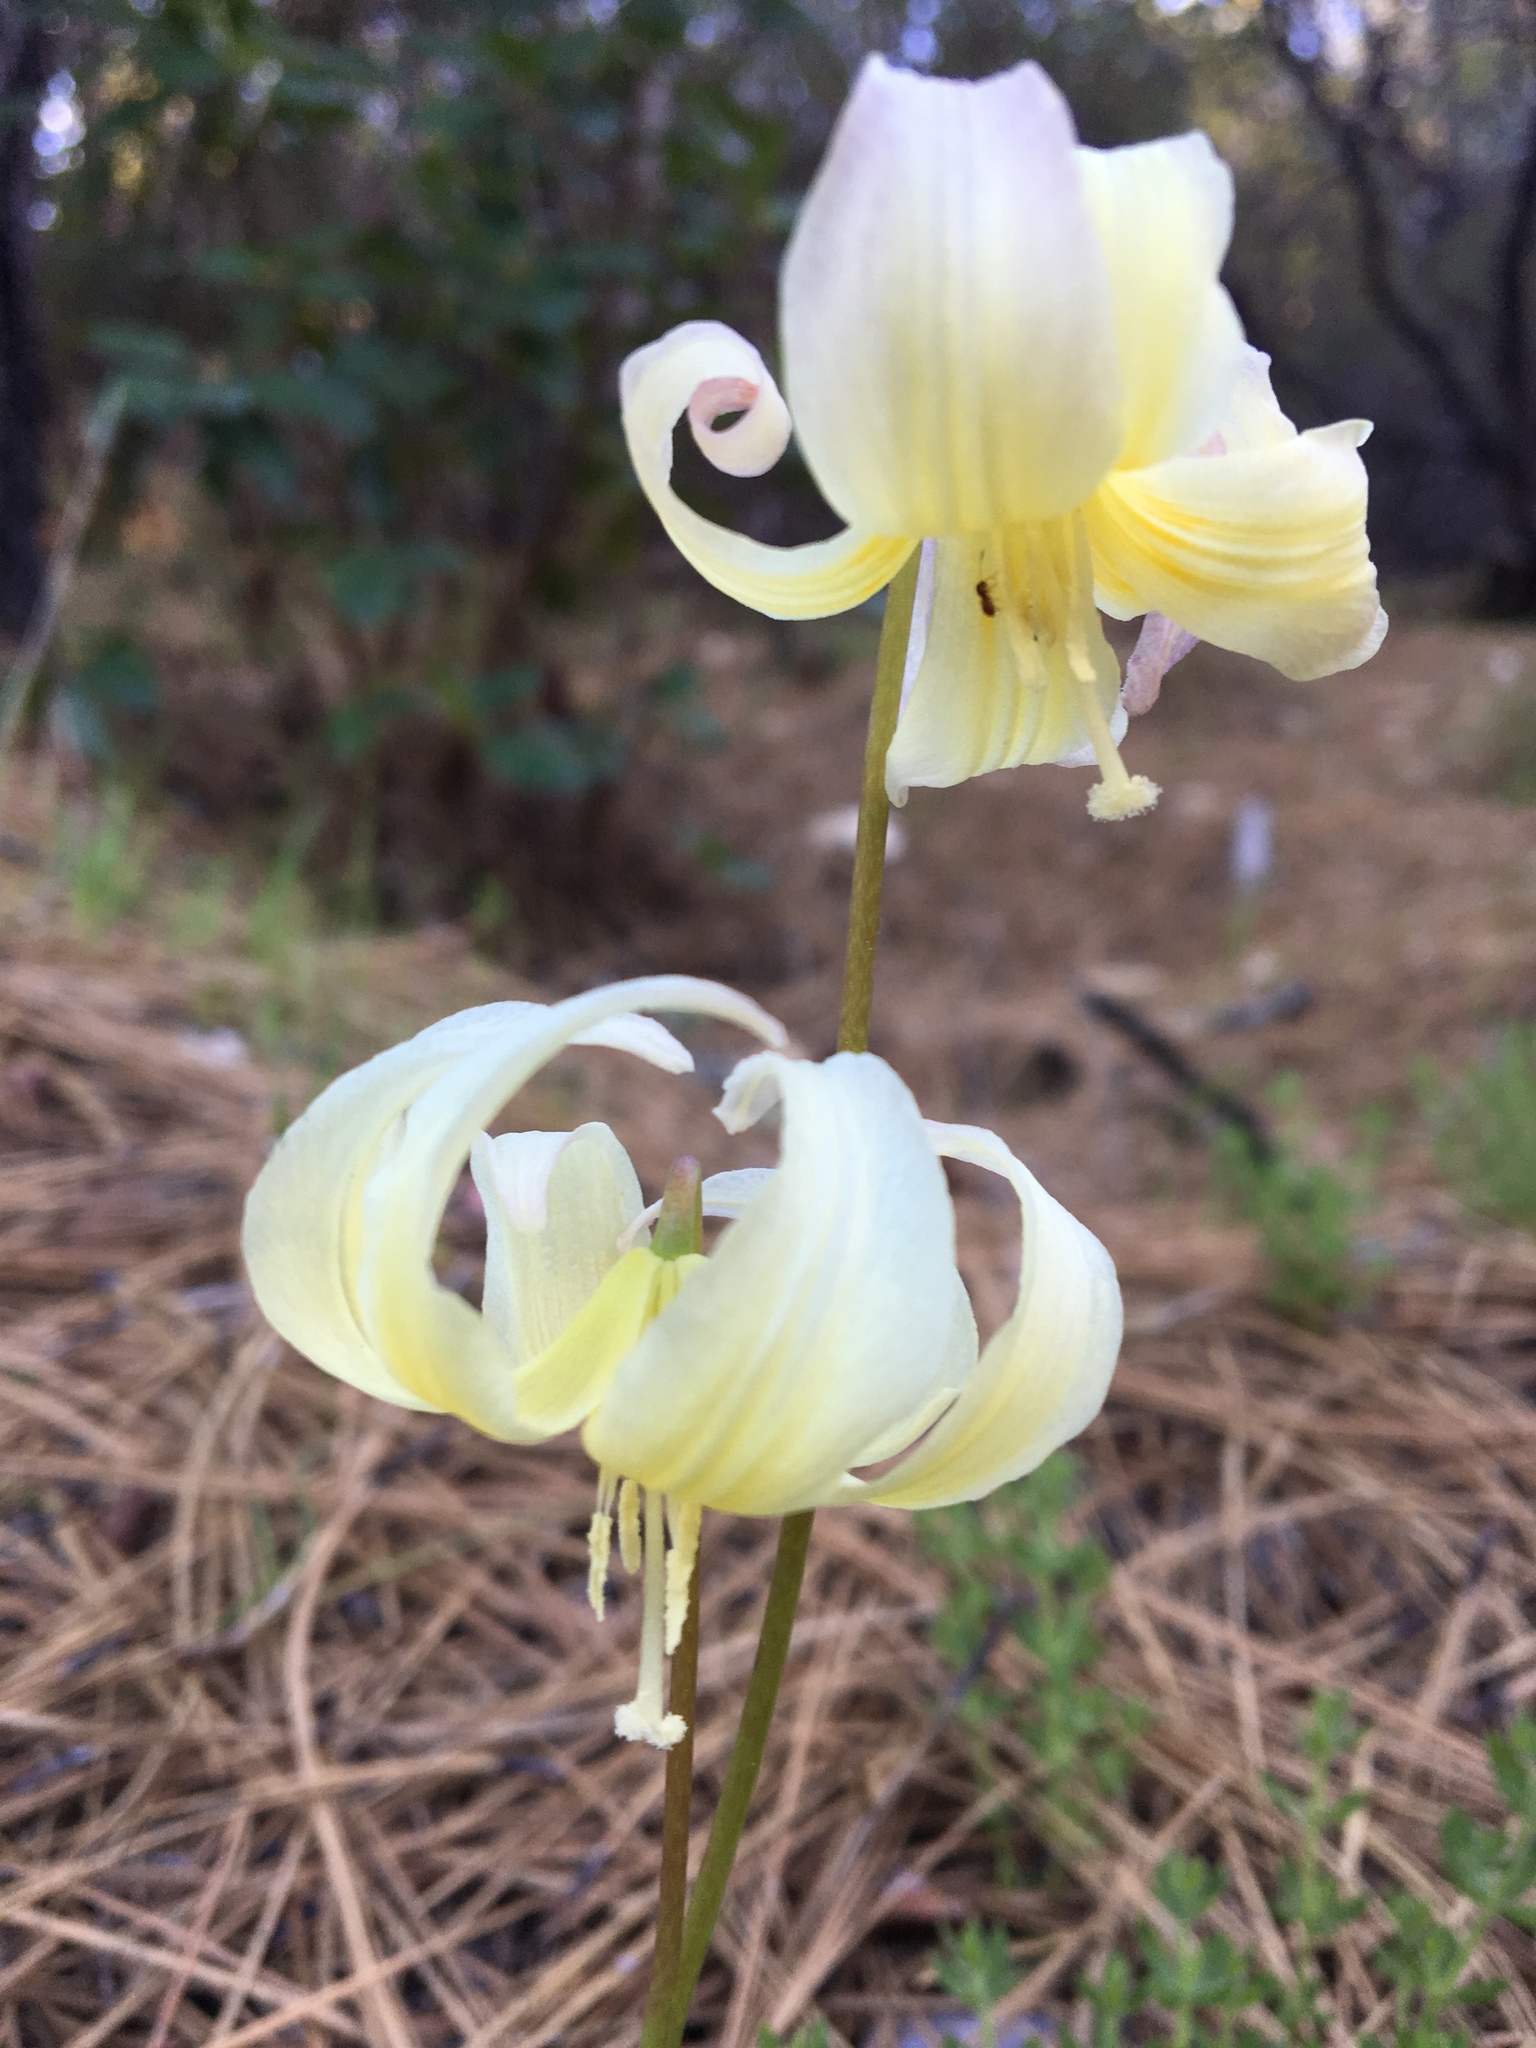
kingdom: Plantae
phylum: Tracheophyta
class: Liliopsida
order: Liliales
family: Liliaceae
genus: Erythronium
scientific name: Erythronium californicum
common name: Fawn-lily
